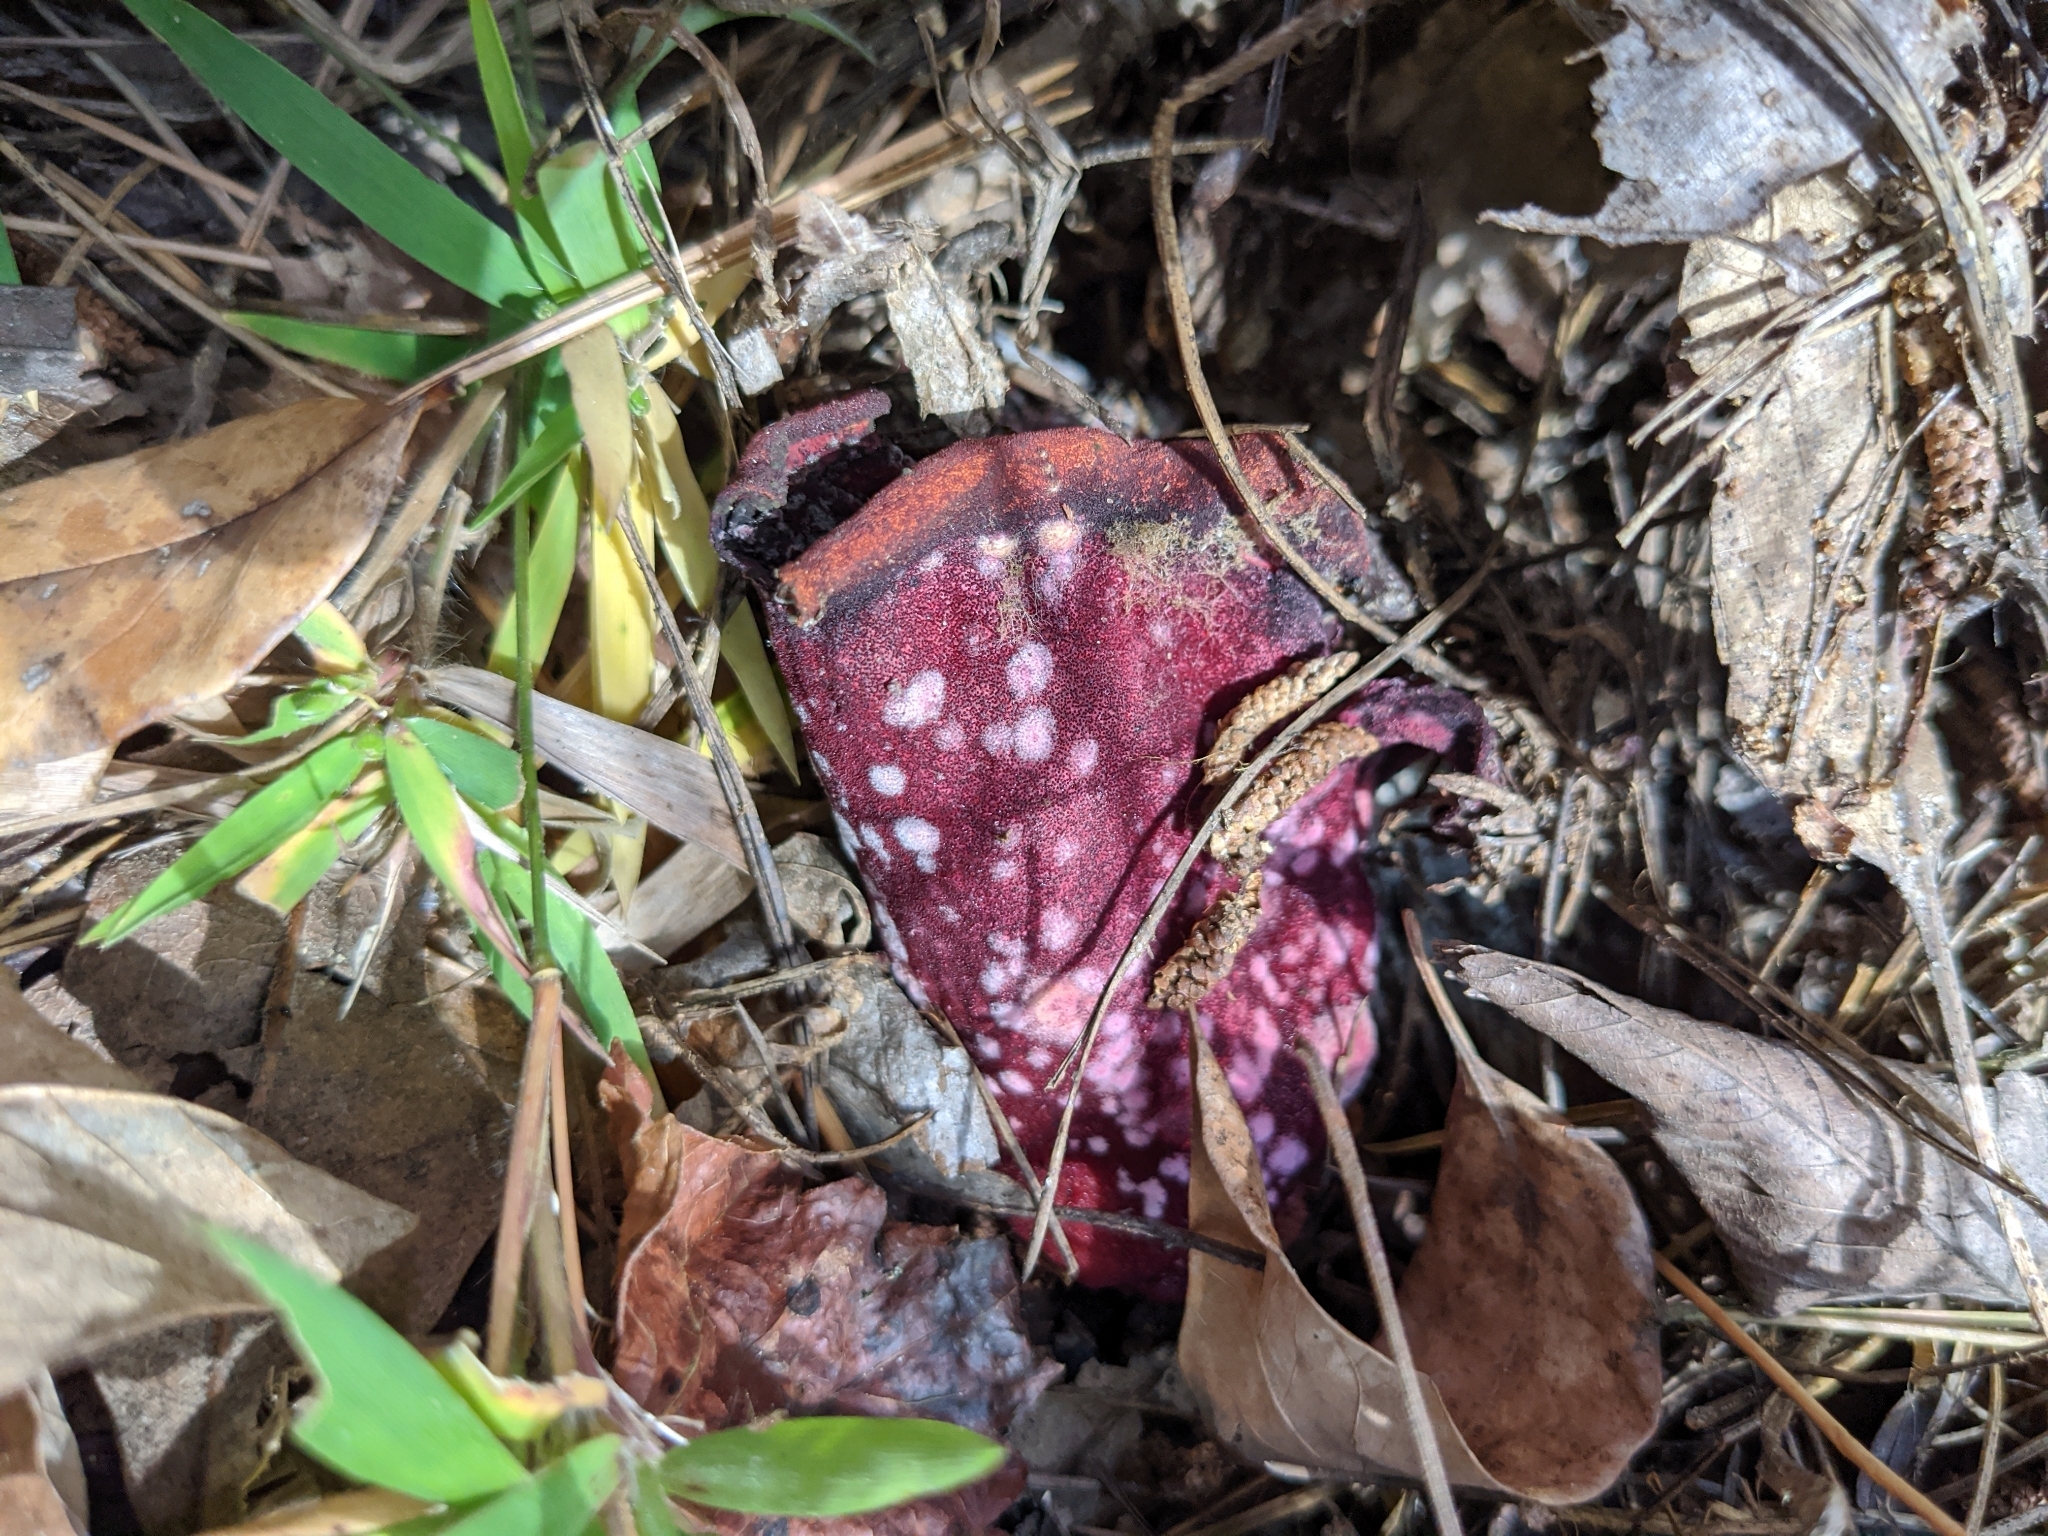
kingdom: Fungi
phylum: Ascomycota
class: Sordariomycetes
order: Hypocreales
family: Hypocreaceae
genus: Hypomyces
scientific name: Hypomyces lactifluorum
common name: Lobster mushroom
